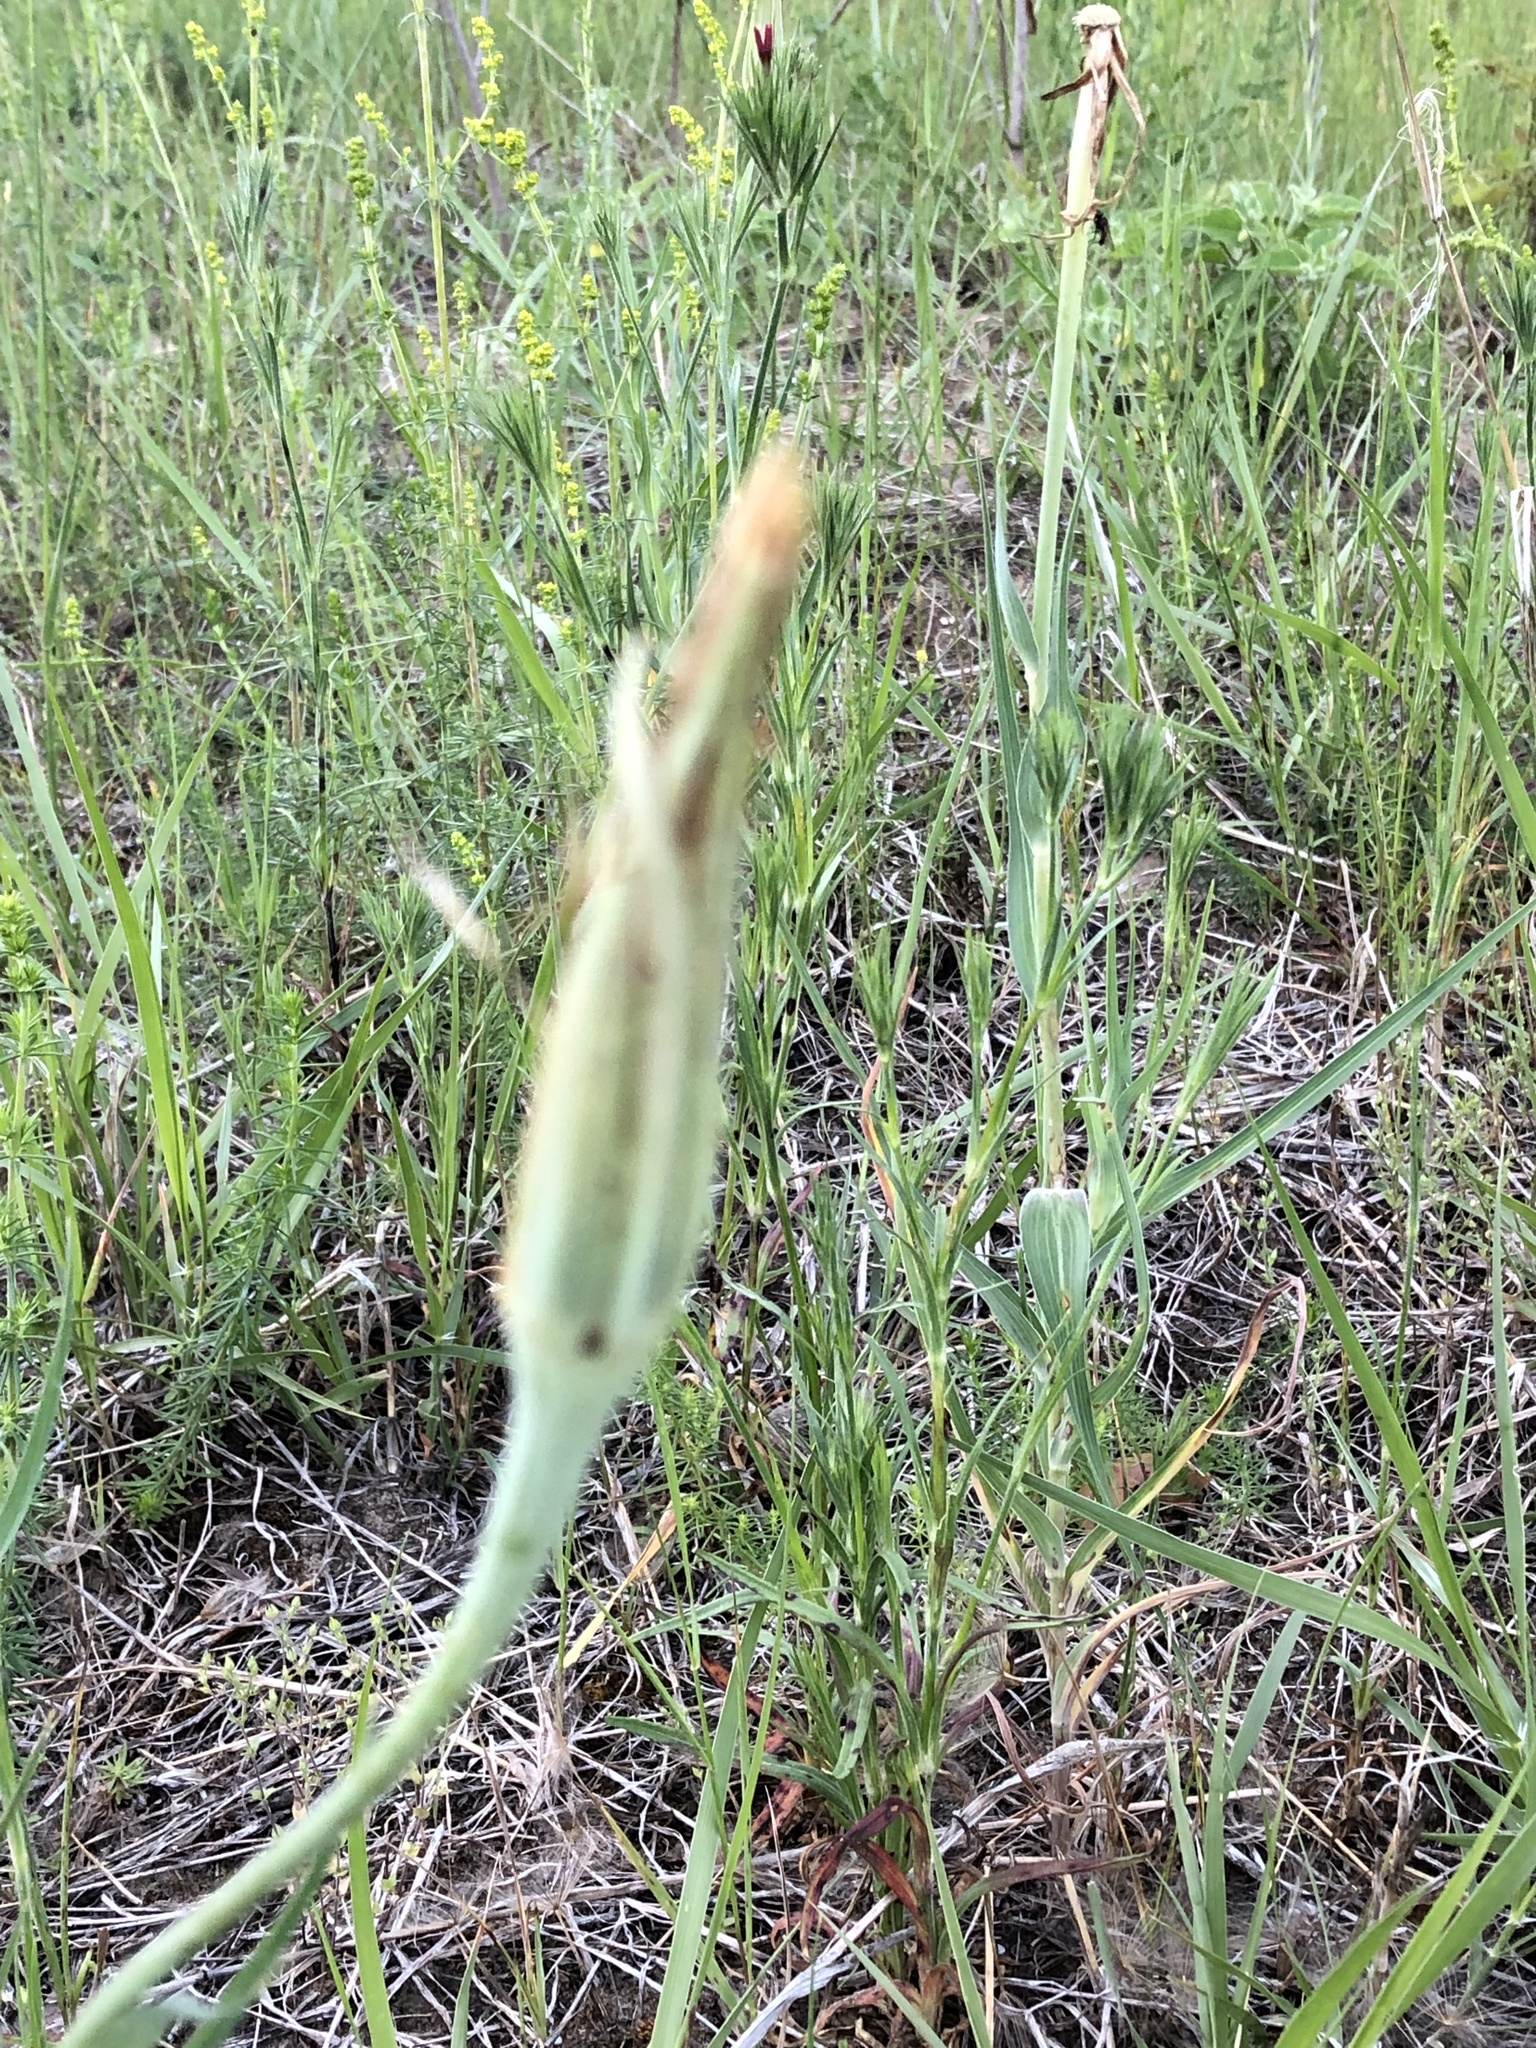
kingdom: Plantae
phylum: Tracheophyta
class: Magnoliopsida
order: Asterales
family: Asteraceae
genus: Tragopogon
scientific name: Tragopogon dubius
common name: Yellow salsify
